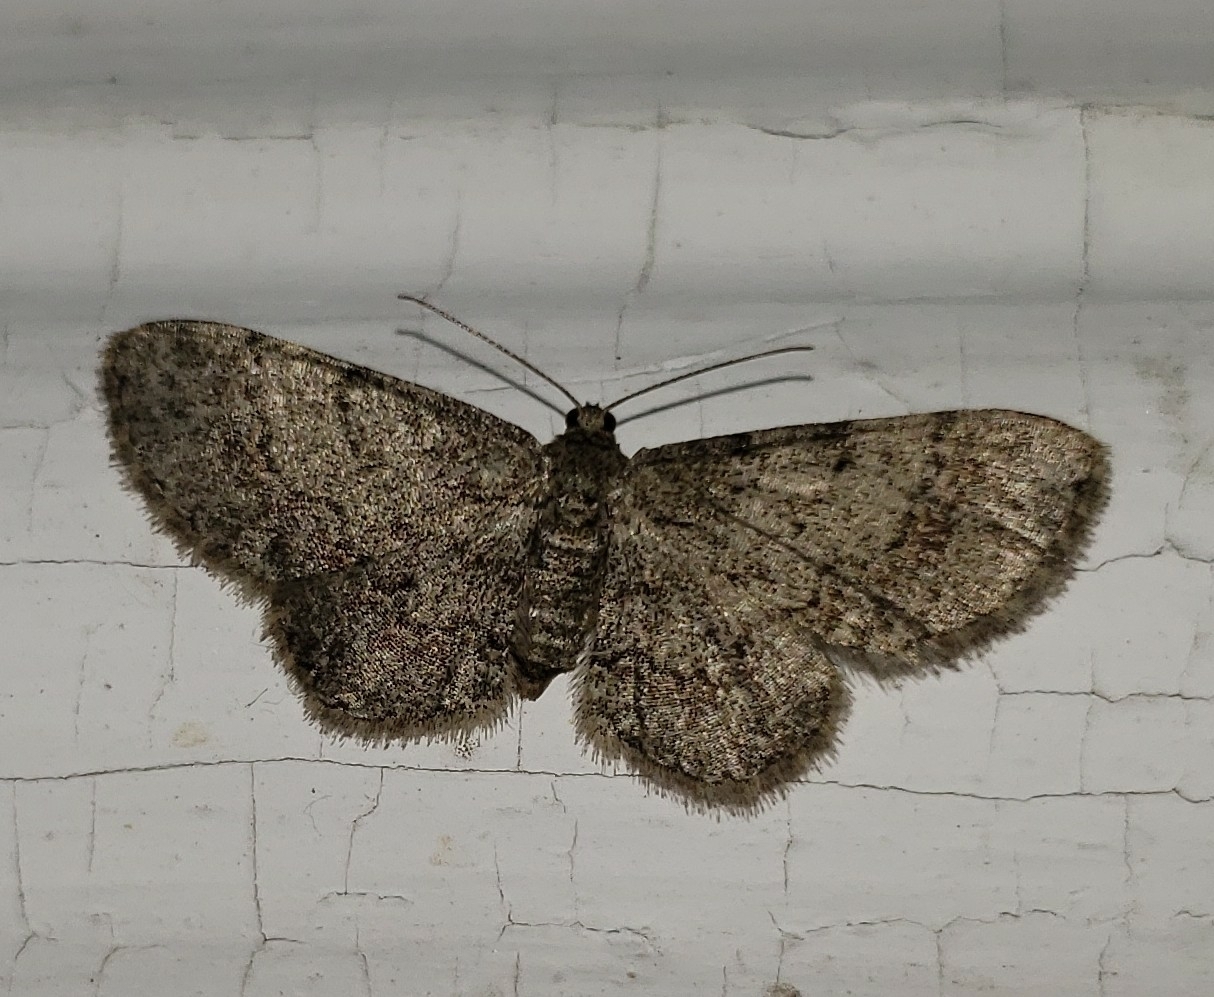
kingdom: Animalia
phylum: Arthropoda
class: Insecta
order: Lepidoptera
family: Geometridae
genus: Glenoides
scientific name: Glenoides texanaria
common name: Texas gray
